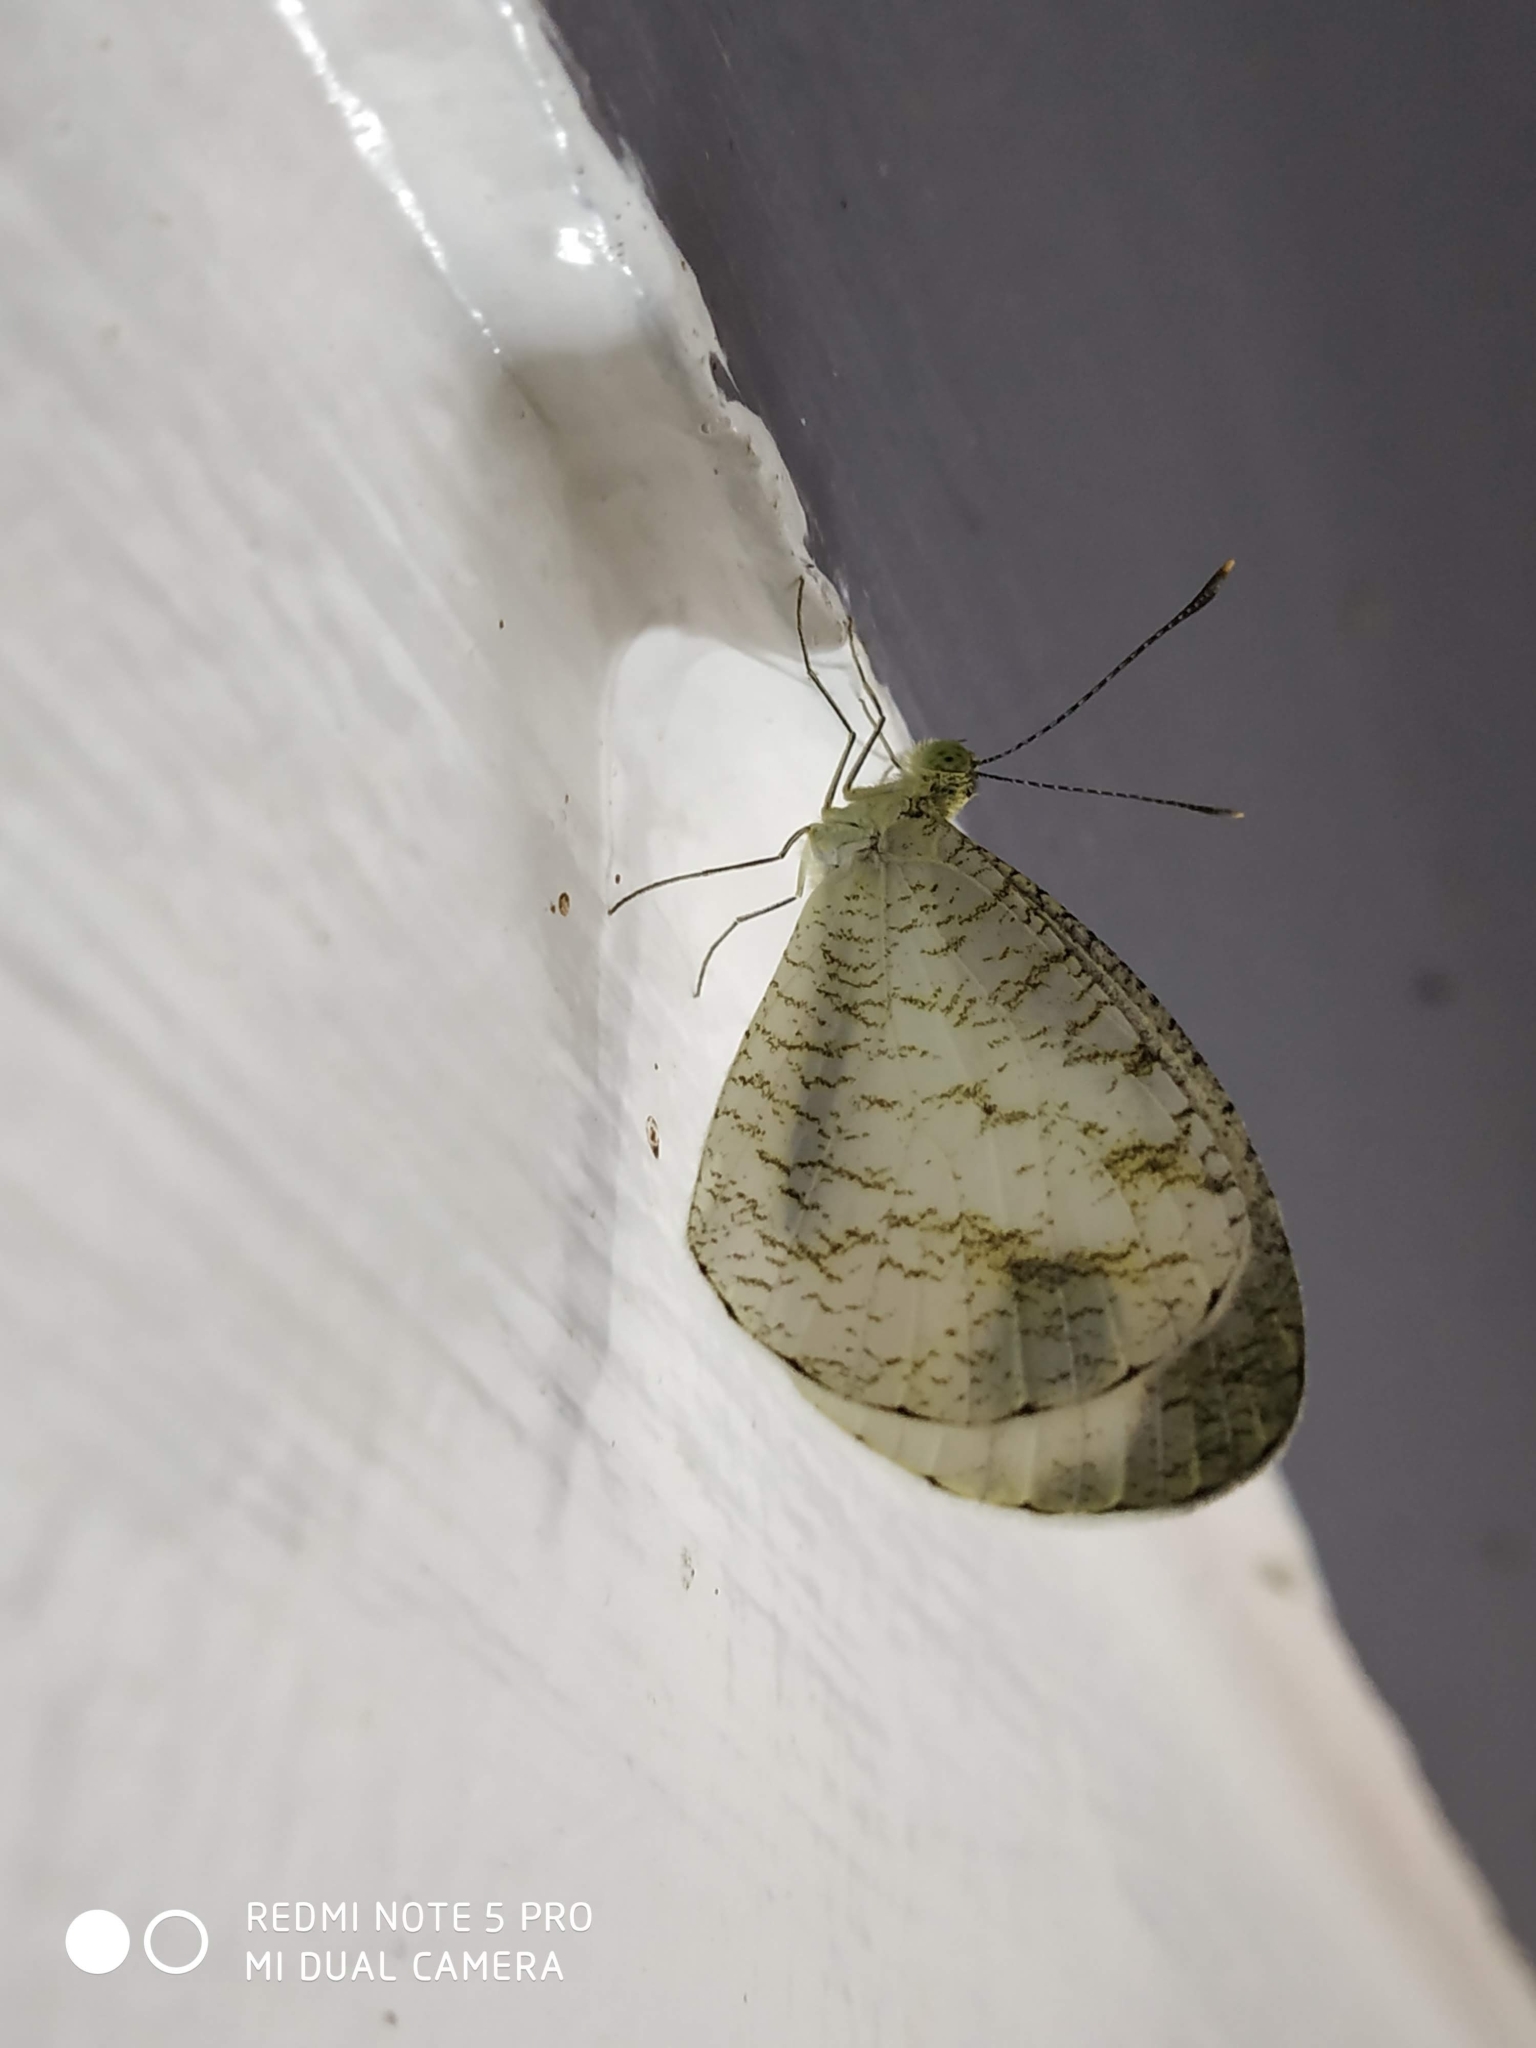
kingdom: Animalia
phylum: Arthropoda
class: Insecta
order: Lepidoptera
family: Pieridae
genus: Leptosia
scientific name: Leptosia nina
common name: Psyche
